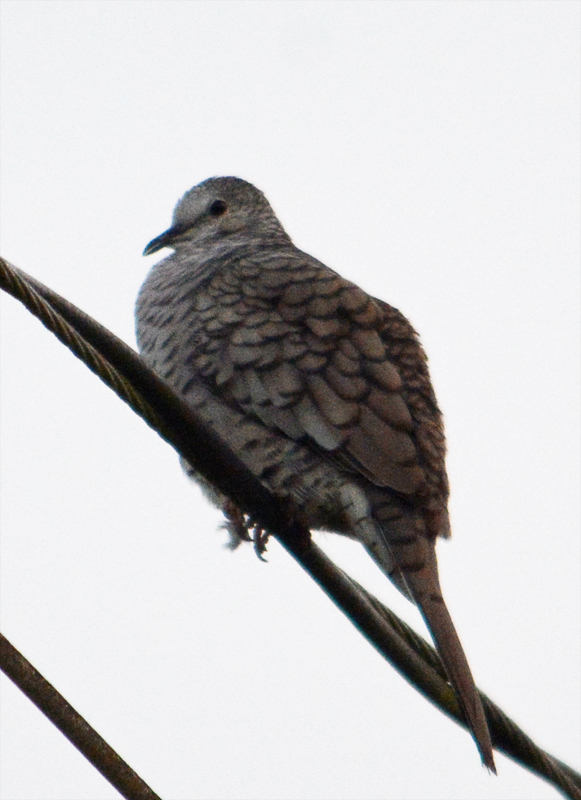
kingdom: Animalia
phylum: Chordata
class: Aves
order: Columbiformes
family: Columbidae
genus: Columbina
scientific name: Columbina inca
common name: Inca dove
